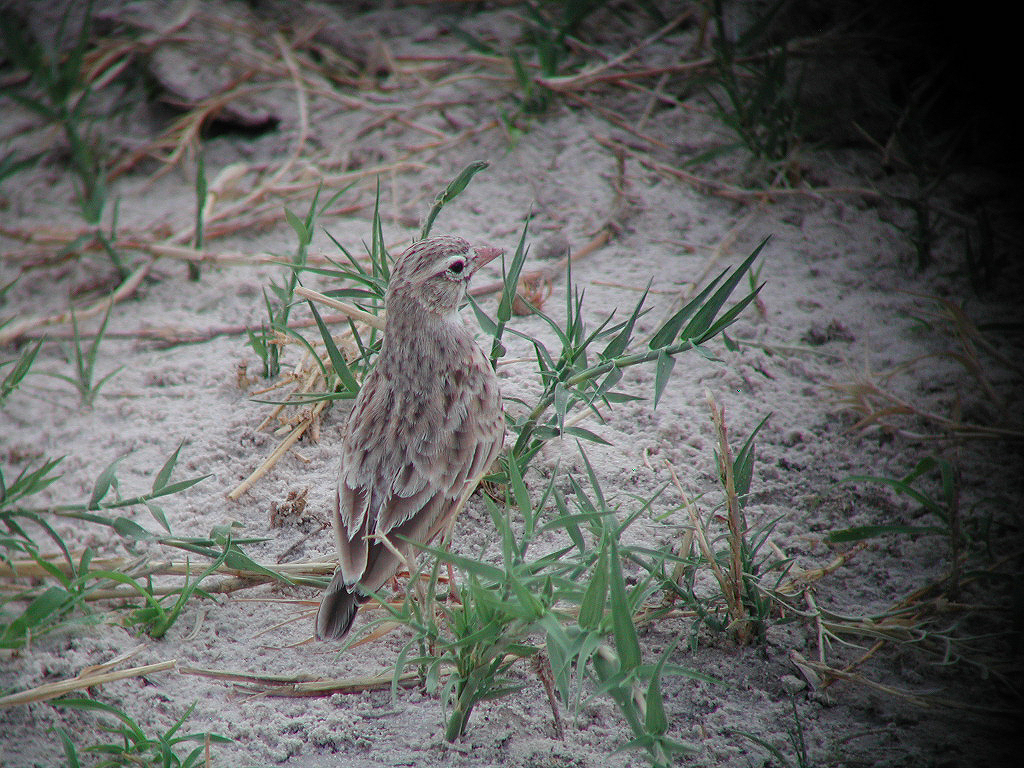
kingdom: Animalia
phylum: Chordata
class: Aves
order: Passeriformes
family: Alaudidae
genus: Spizocorys
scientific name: Spizocorys conirostris
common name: Pink-billed lark
